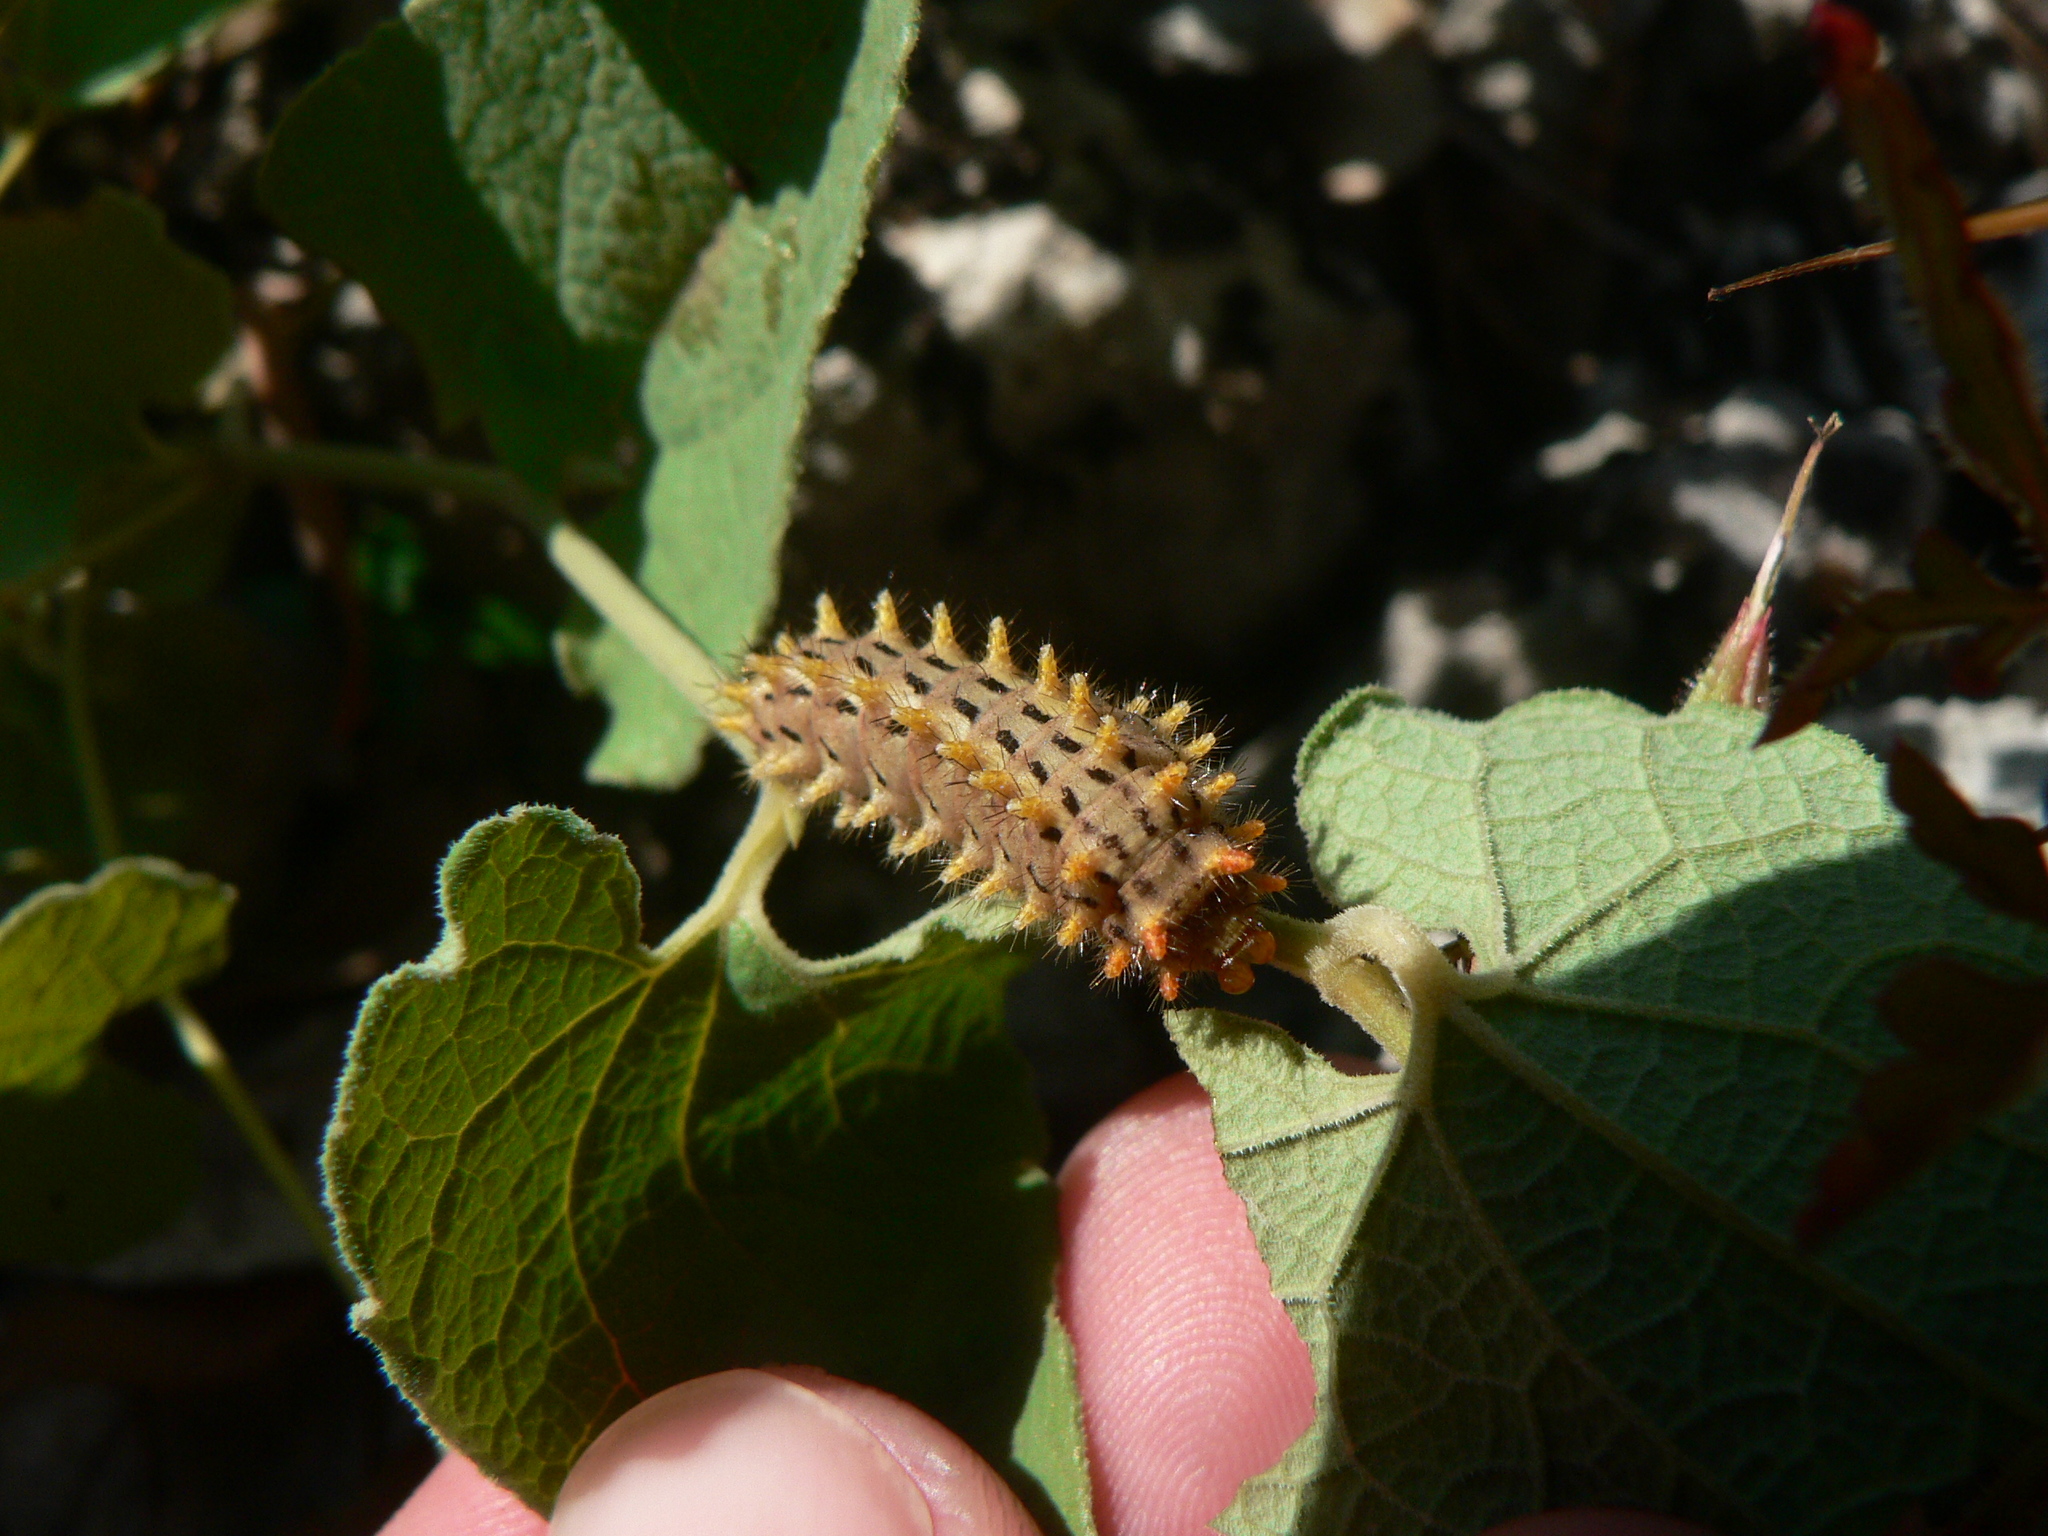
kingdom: Animalia
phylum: Arthropoda
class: Insecta
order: Lepidoptera
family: Papilionidae
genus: Zerynthia
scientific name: Zerynthia rumina
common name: Spanish festoon
